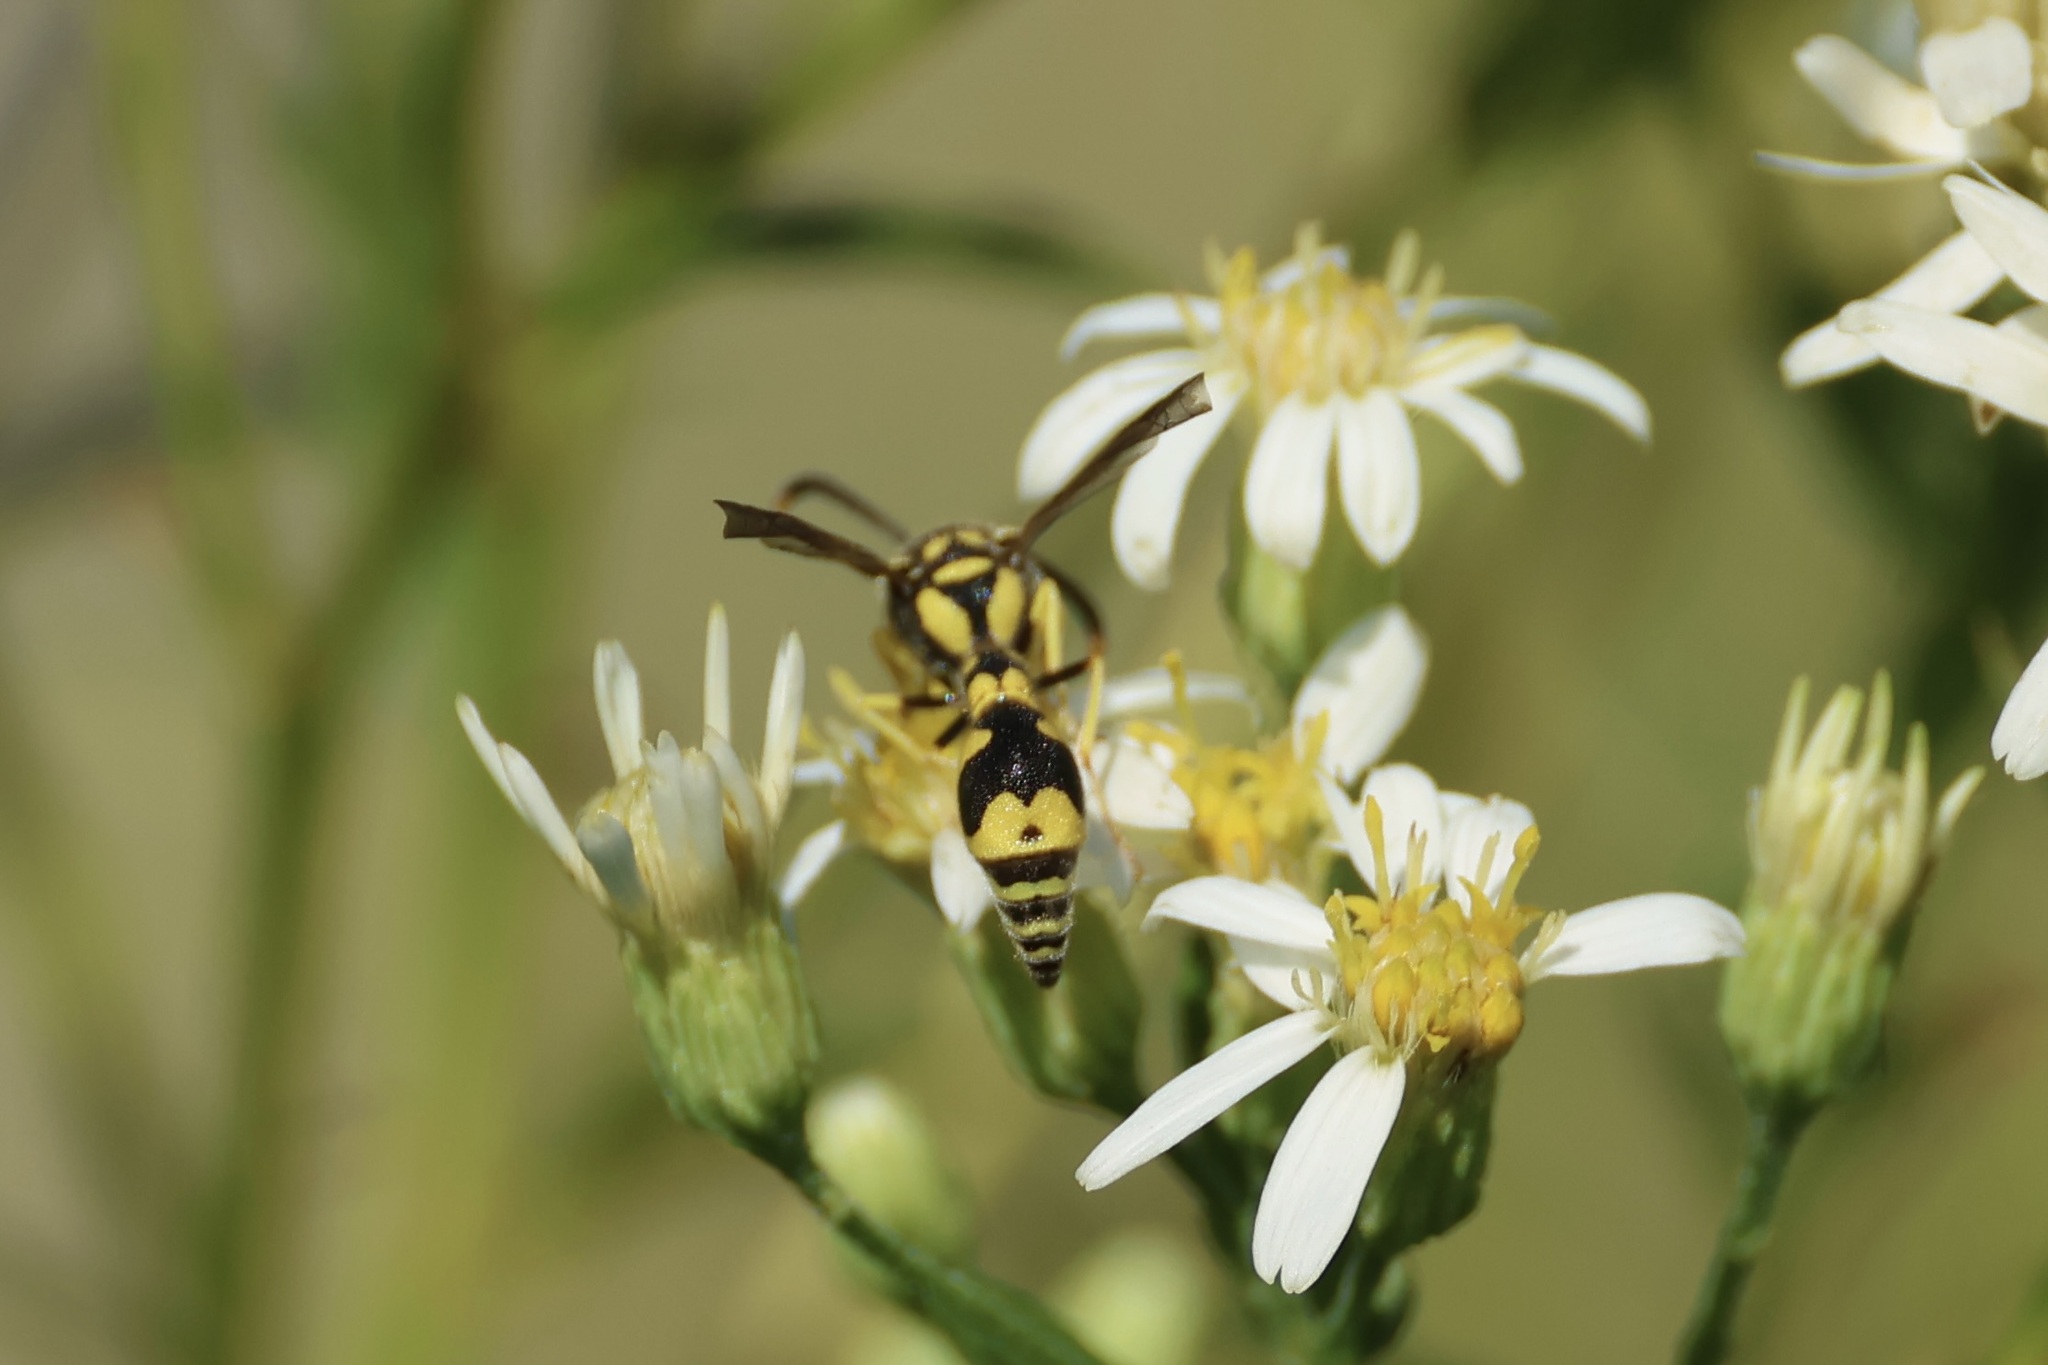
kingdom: Animalia
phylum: Arthropoda
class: Insecta
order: Hymenoptera
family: Vespidae
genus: Eumenes
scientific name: Eumenes mediterraneus
